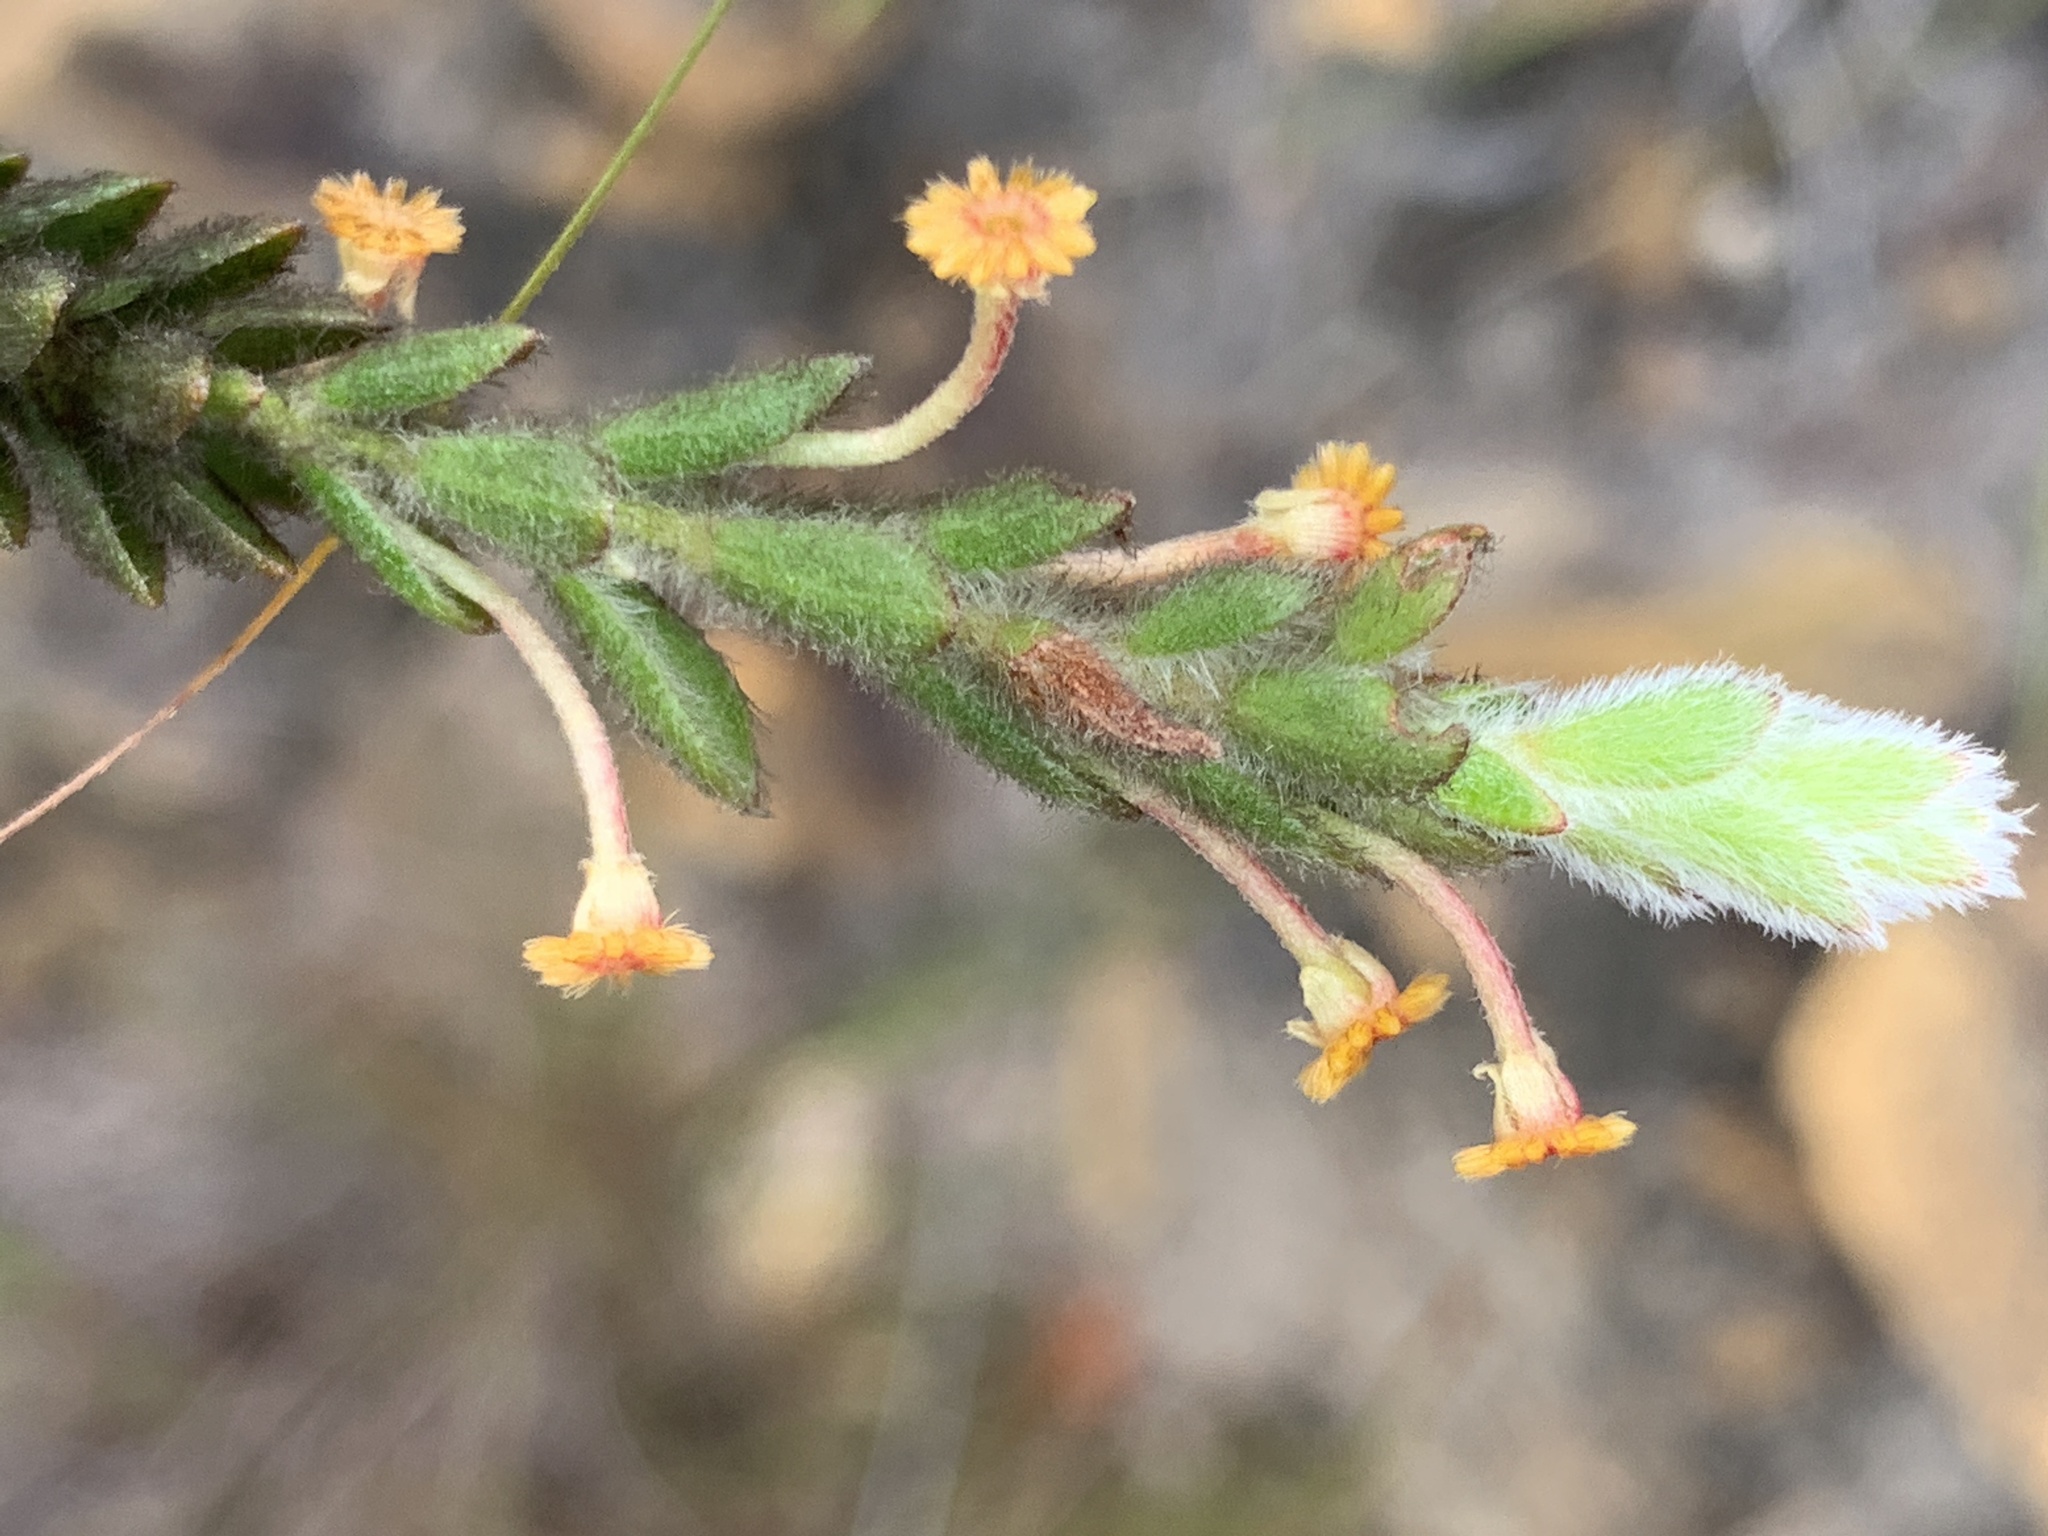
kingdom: Plantae
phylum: Tracheophyta
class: Magnoliopsida
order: Malvales
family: Thymelaeaceae
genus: Struthiola
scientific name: Struthiola tomentosa
